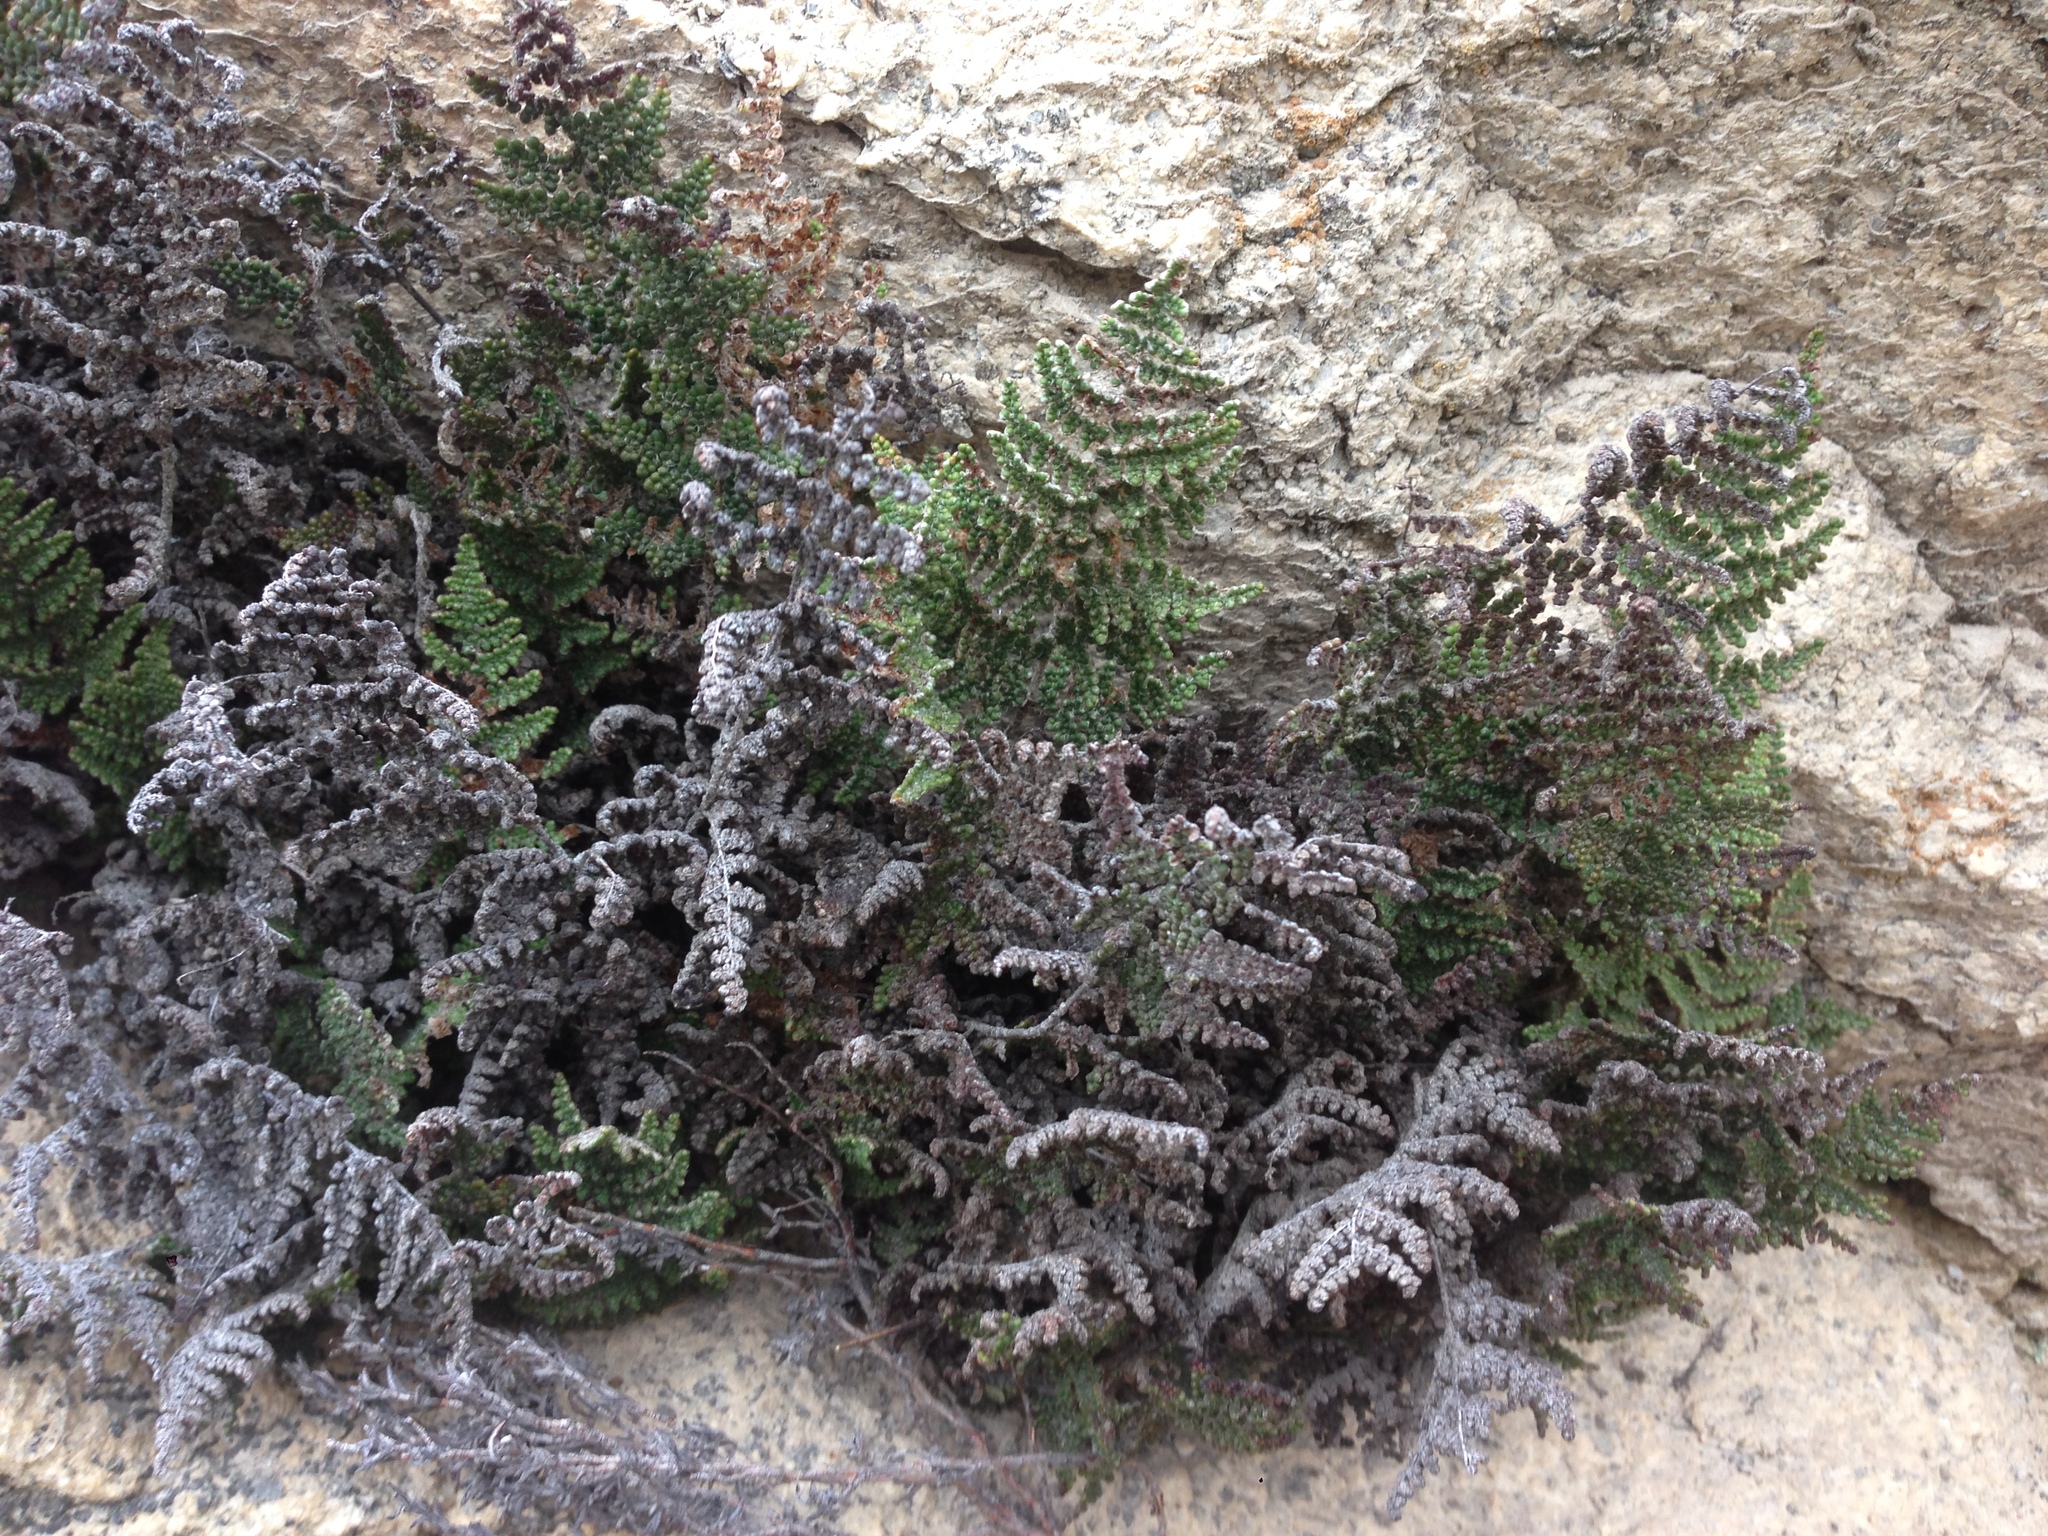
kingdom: Plantae
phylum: Tracheophyta
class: Polypodiopsida
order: Polypodiales
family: Pteridaceae
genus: Myriopteris
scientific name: Myriopteris covillei
